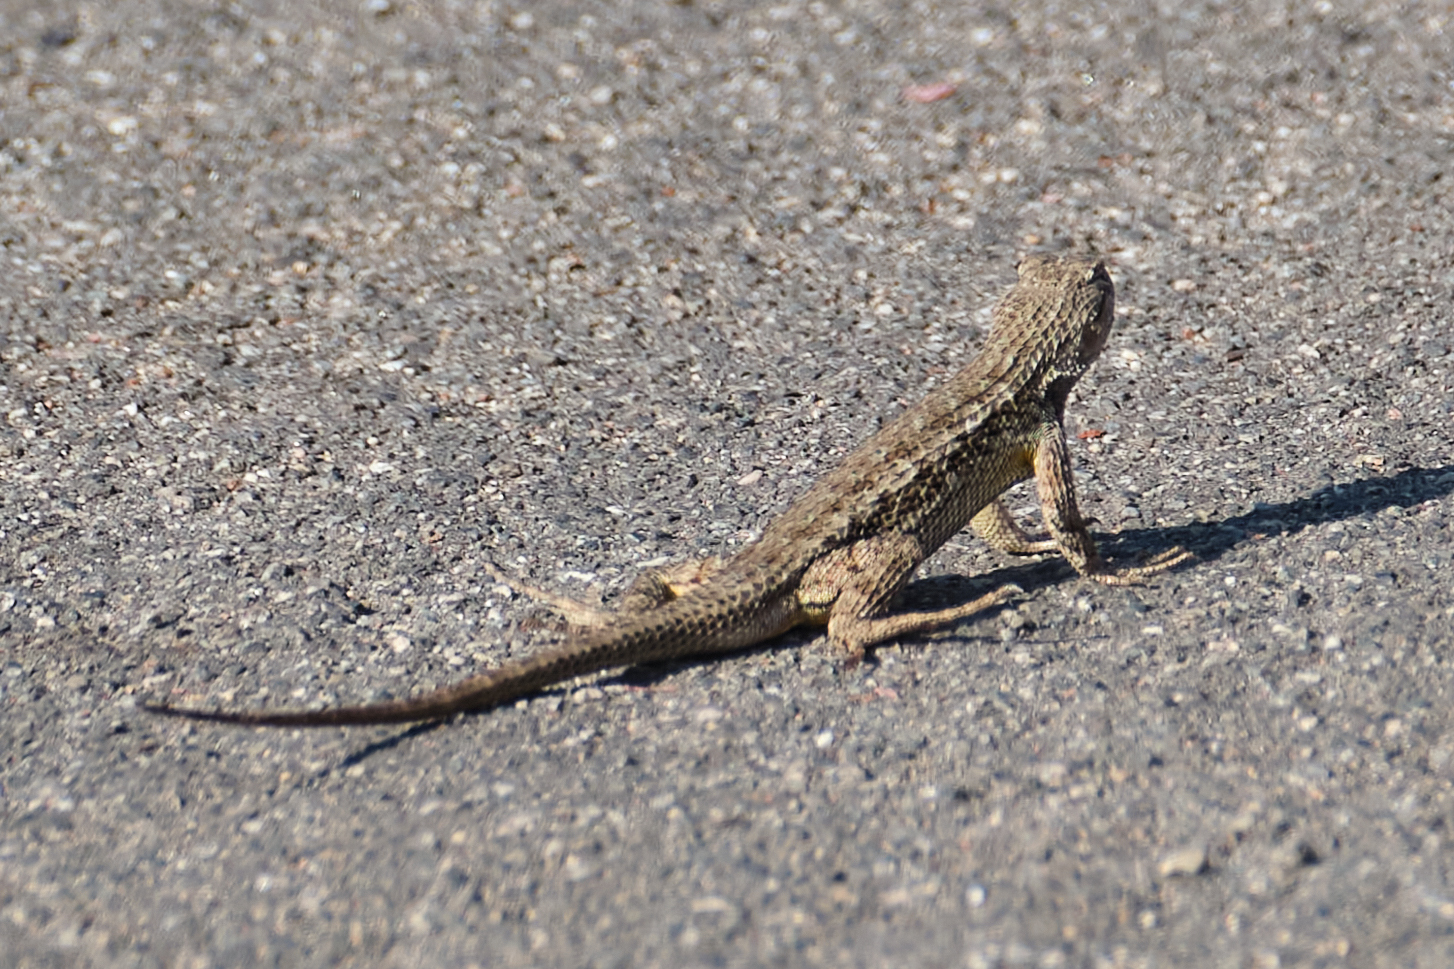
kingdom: Animalia
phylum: Chordata
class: Squamata
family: Phrynosomatidae
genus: Sceloporus
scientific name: Sceloporus occidentalis
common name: Western fence lizard
